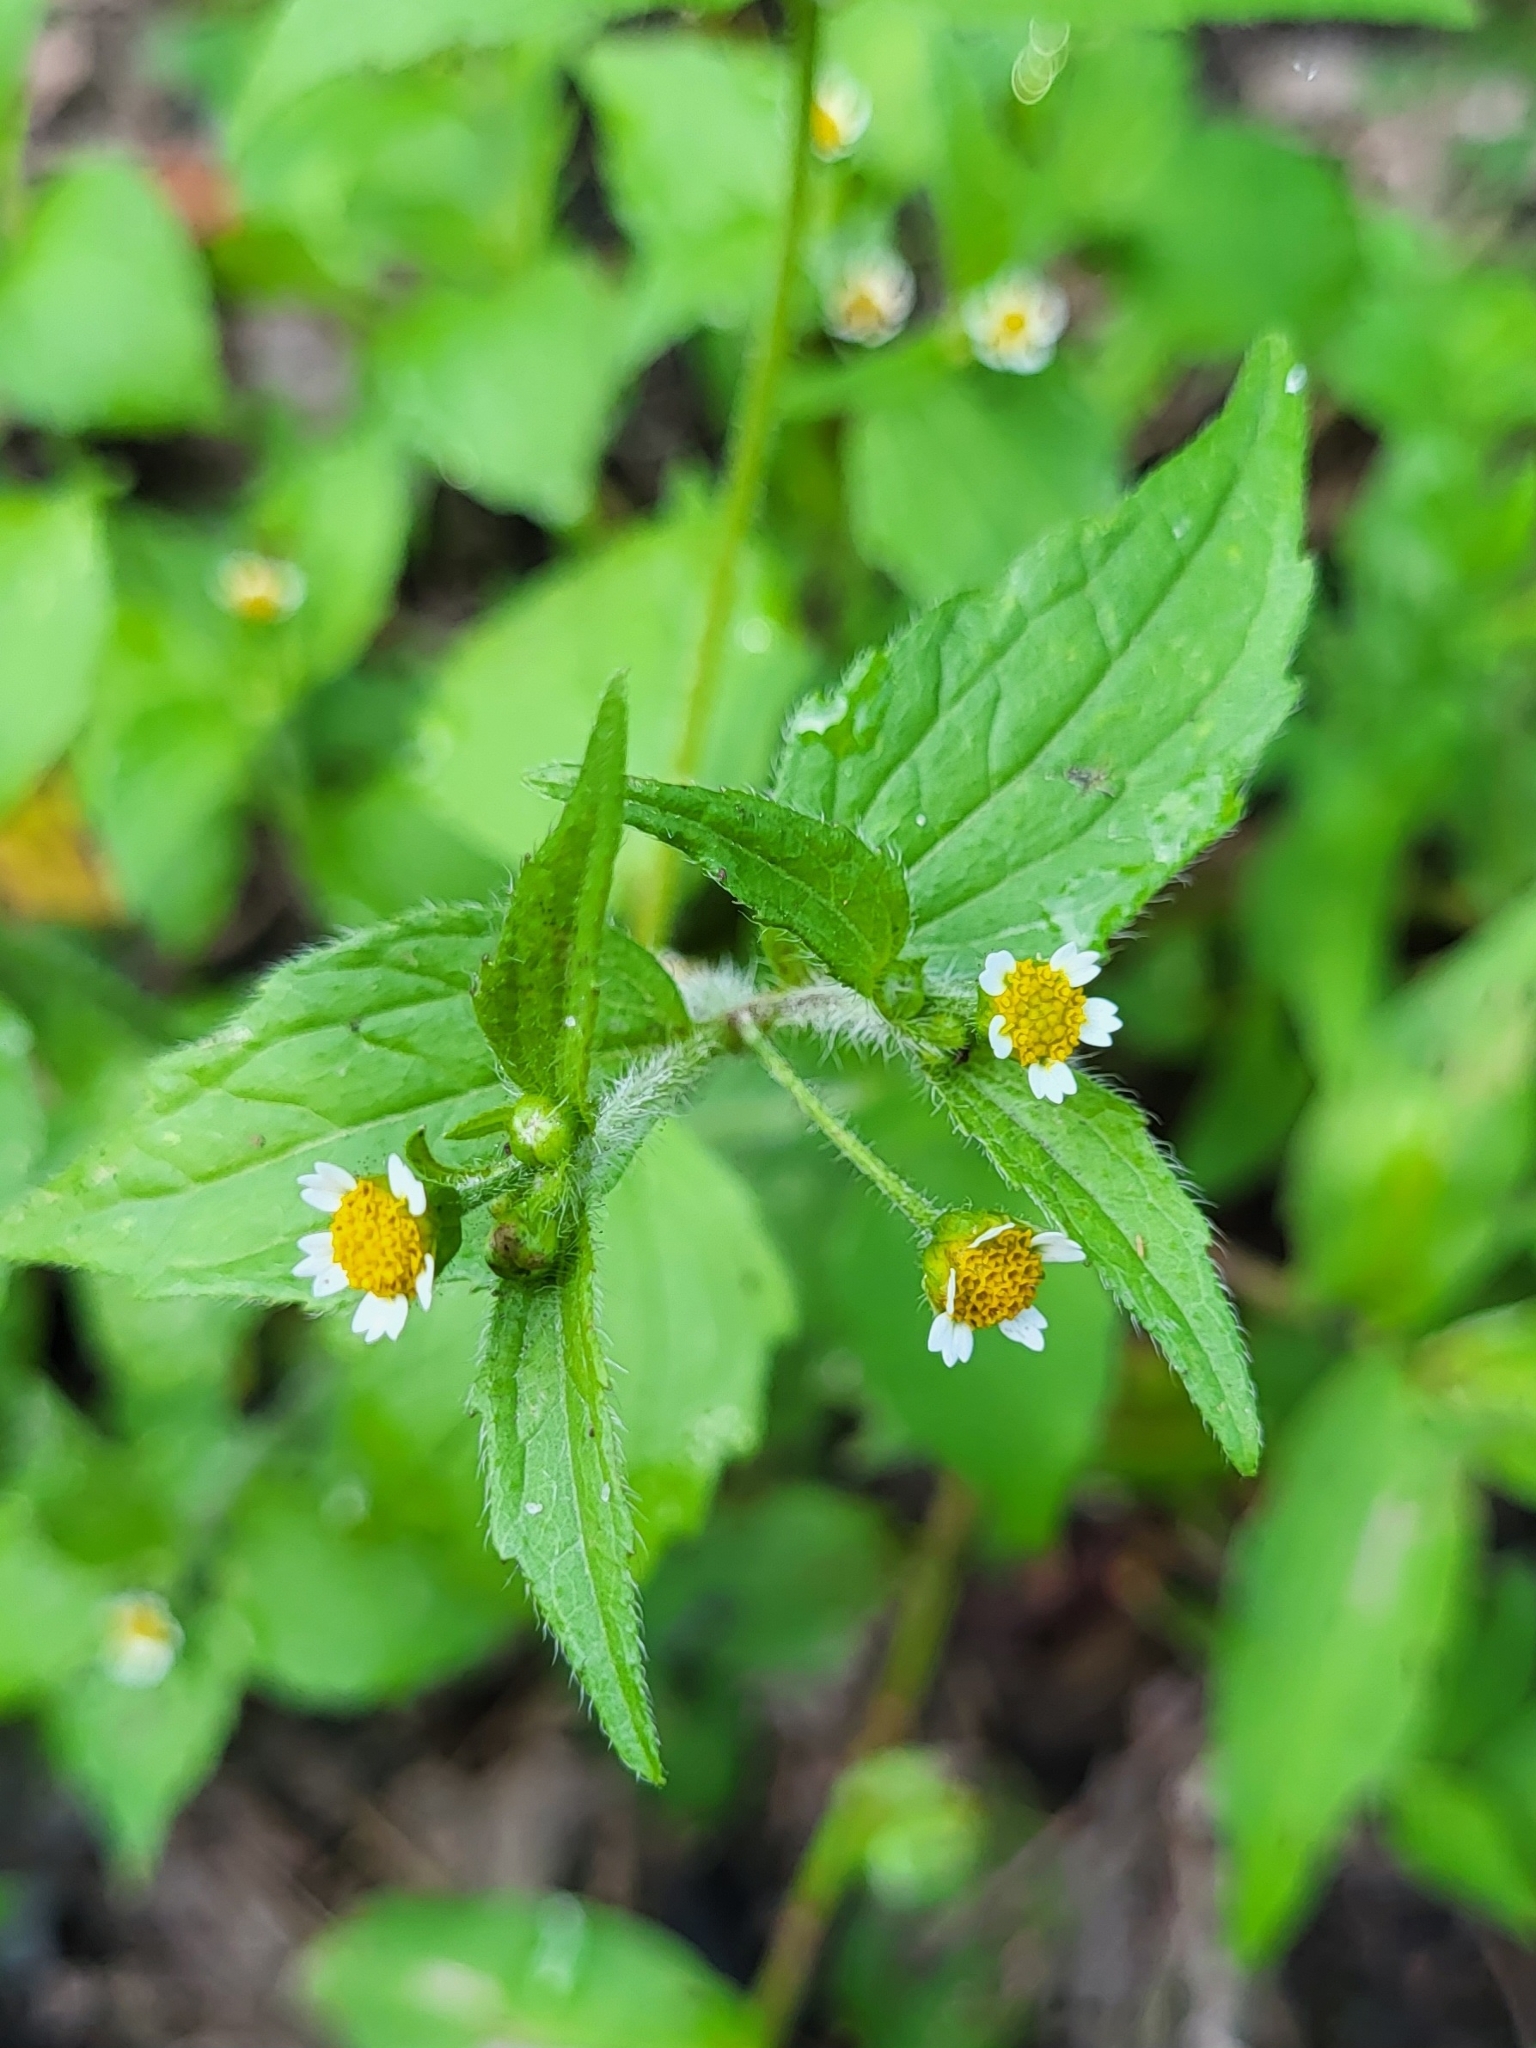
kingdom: Plantae
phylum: Tracheophyta
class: Magnoliopsida
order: Asterales
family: Asteraceae
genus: Galinsoga
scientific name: Galinsoga quadriradiata
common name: Shaggy soldier
